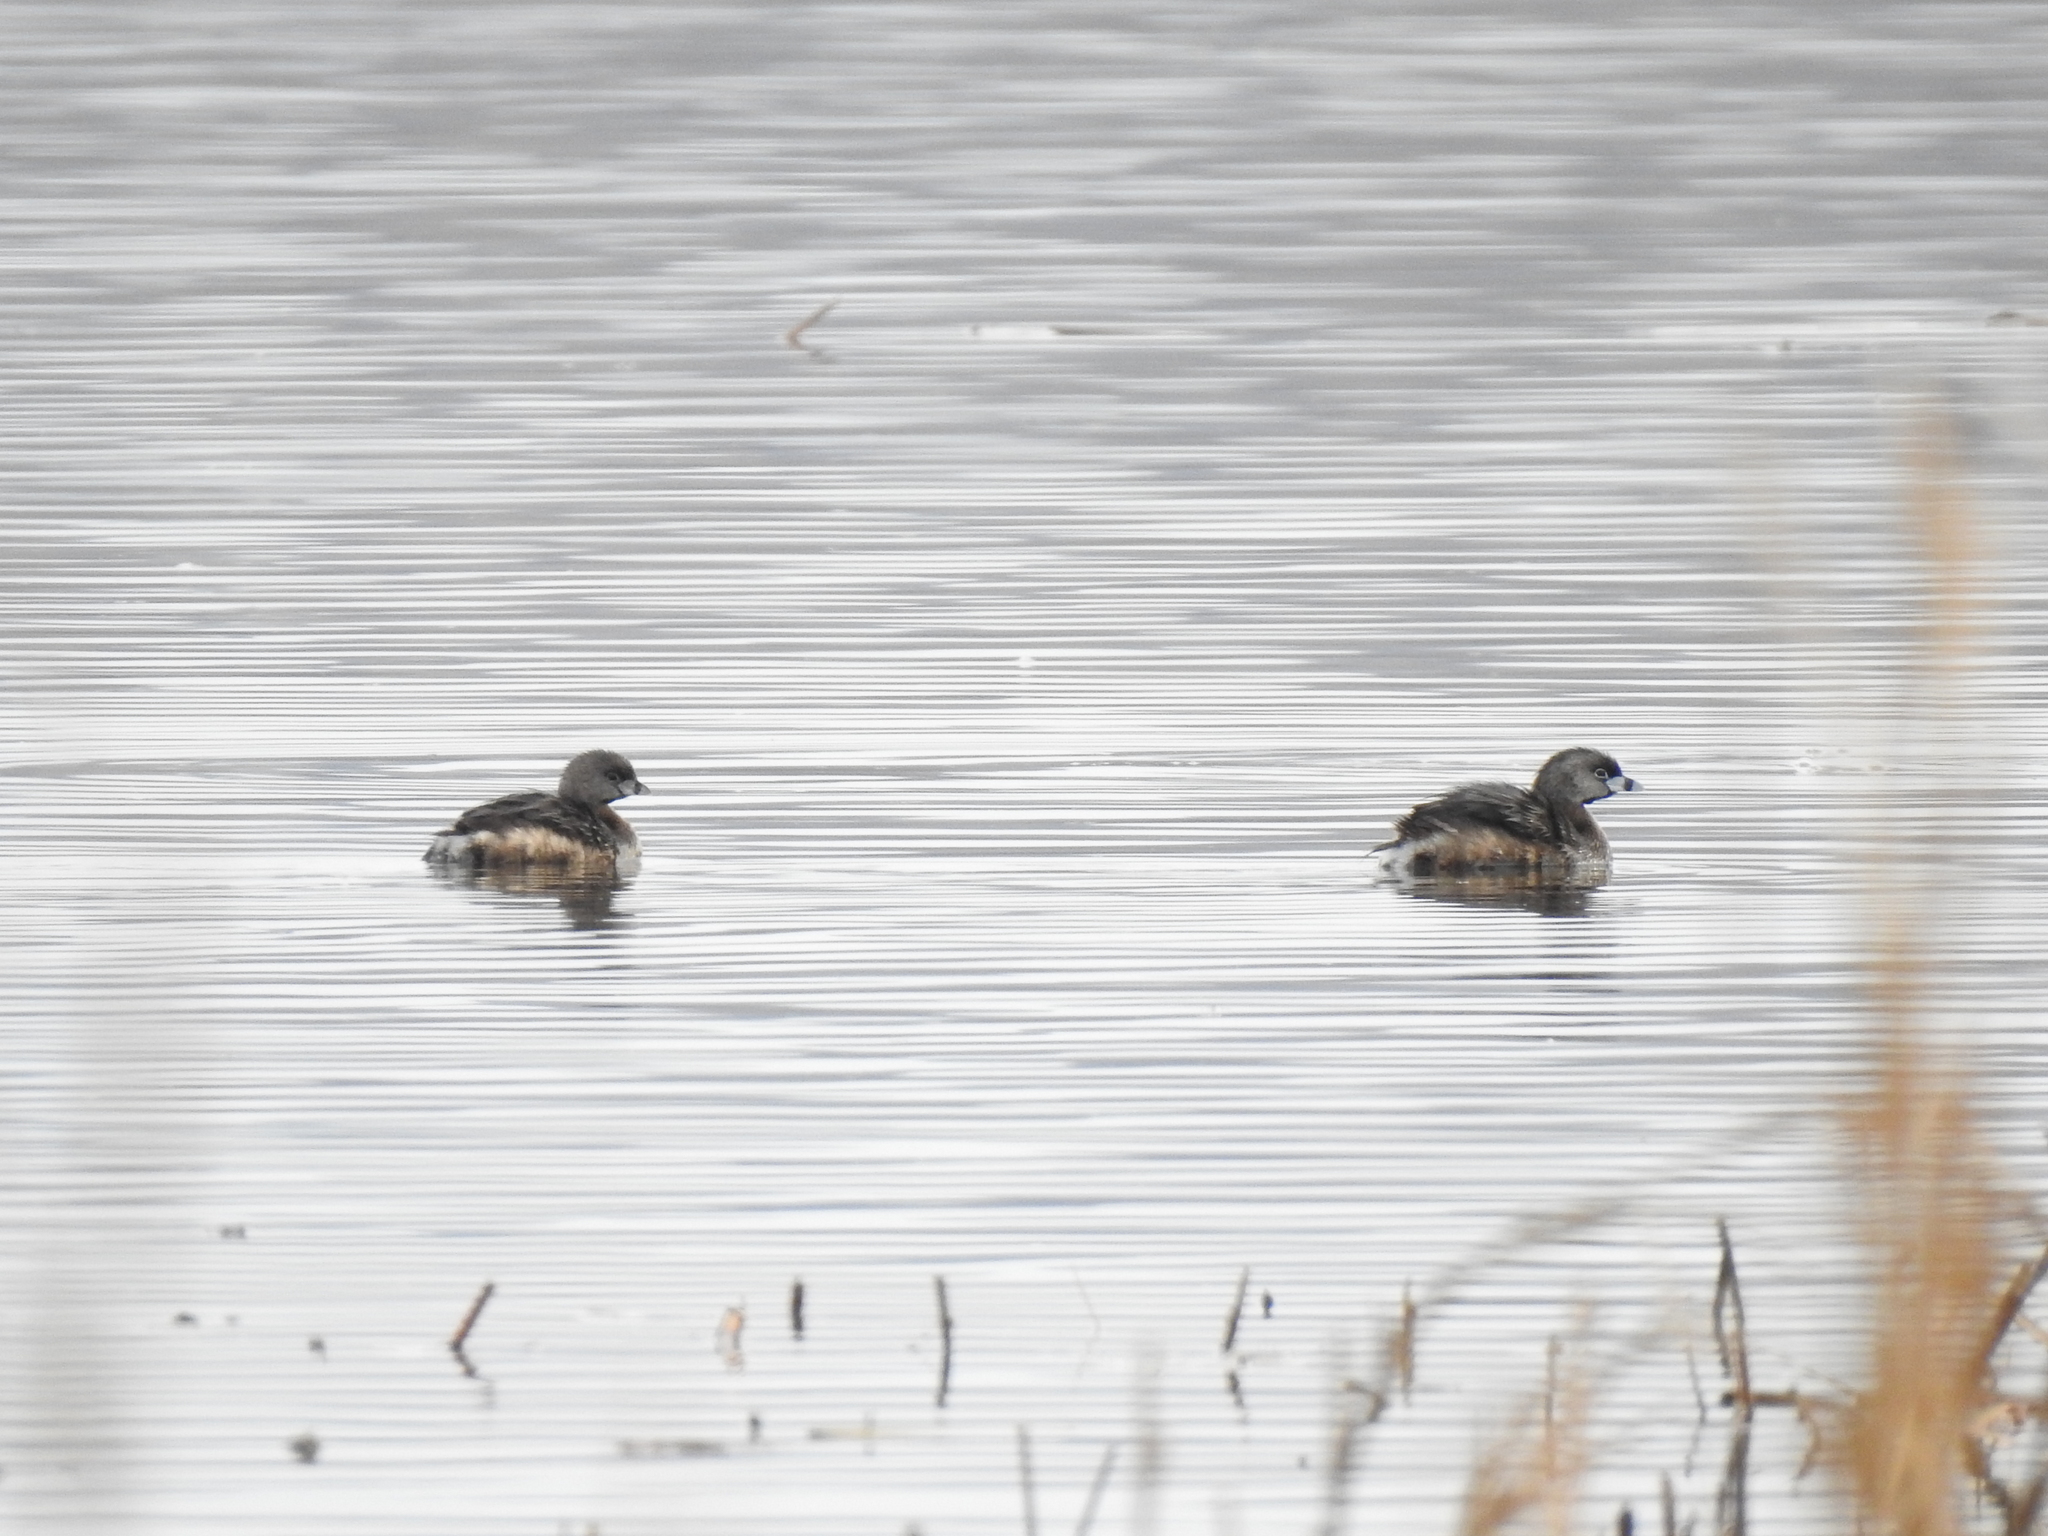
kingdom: Animalia
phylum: Chordata
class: Aves
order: Podicipediformes
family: Podicipedidae
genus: Podilymbus
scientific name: Podilymbus podiceps
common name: Pied-billed grebe
